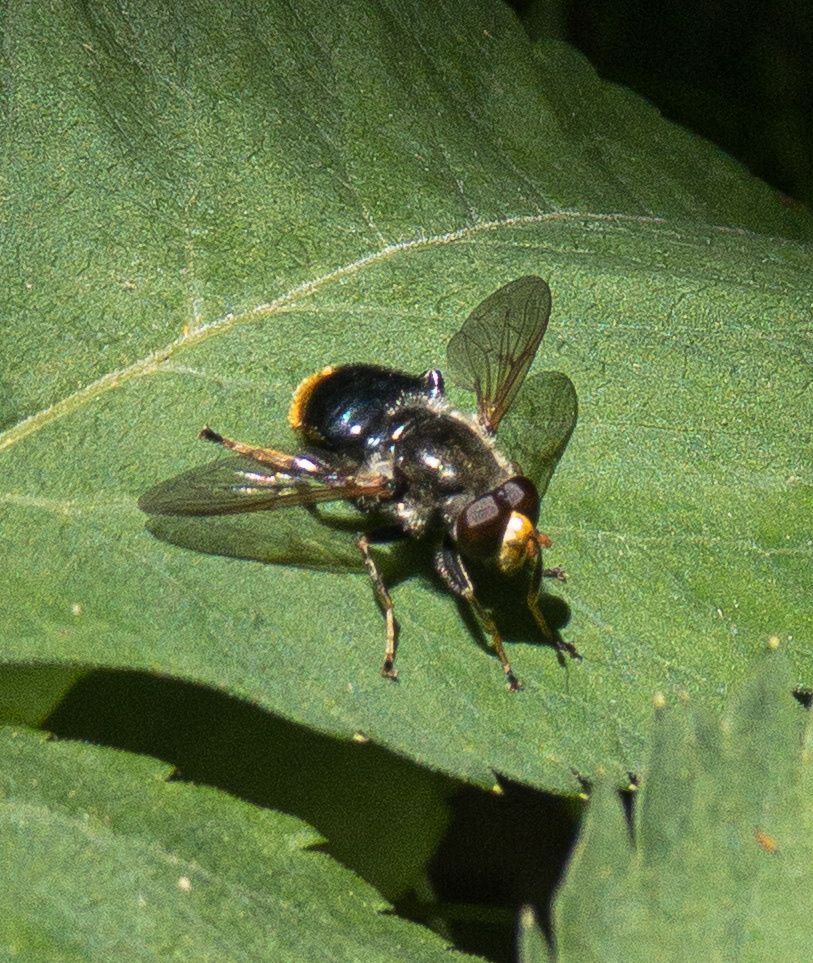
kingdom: Animalia
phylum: Arthropoda
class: Insecta
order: Diptera
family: Syrphidae
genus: Blera
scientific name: Blera analis
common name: Orange-tailed wood fly
